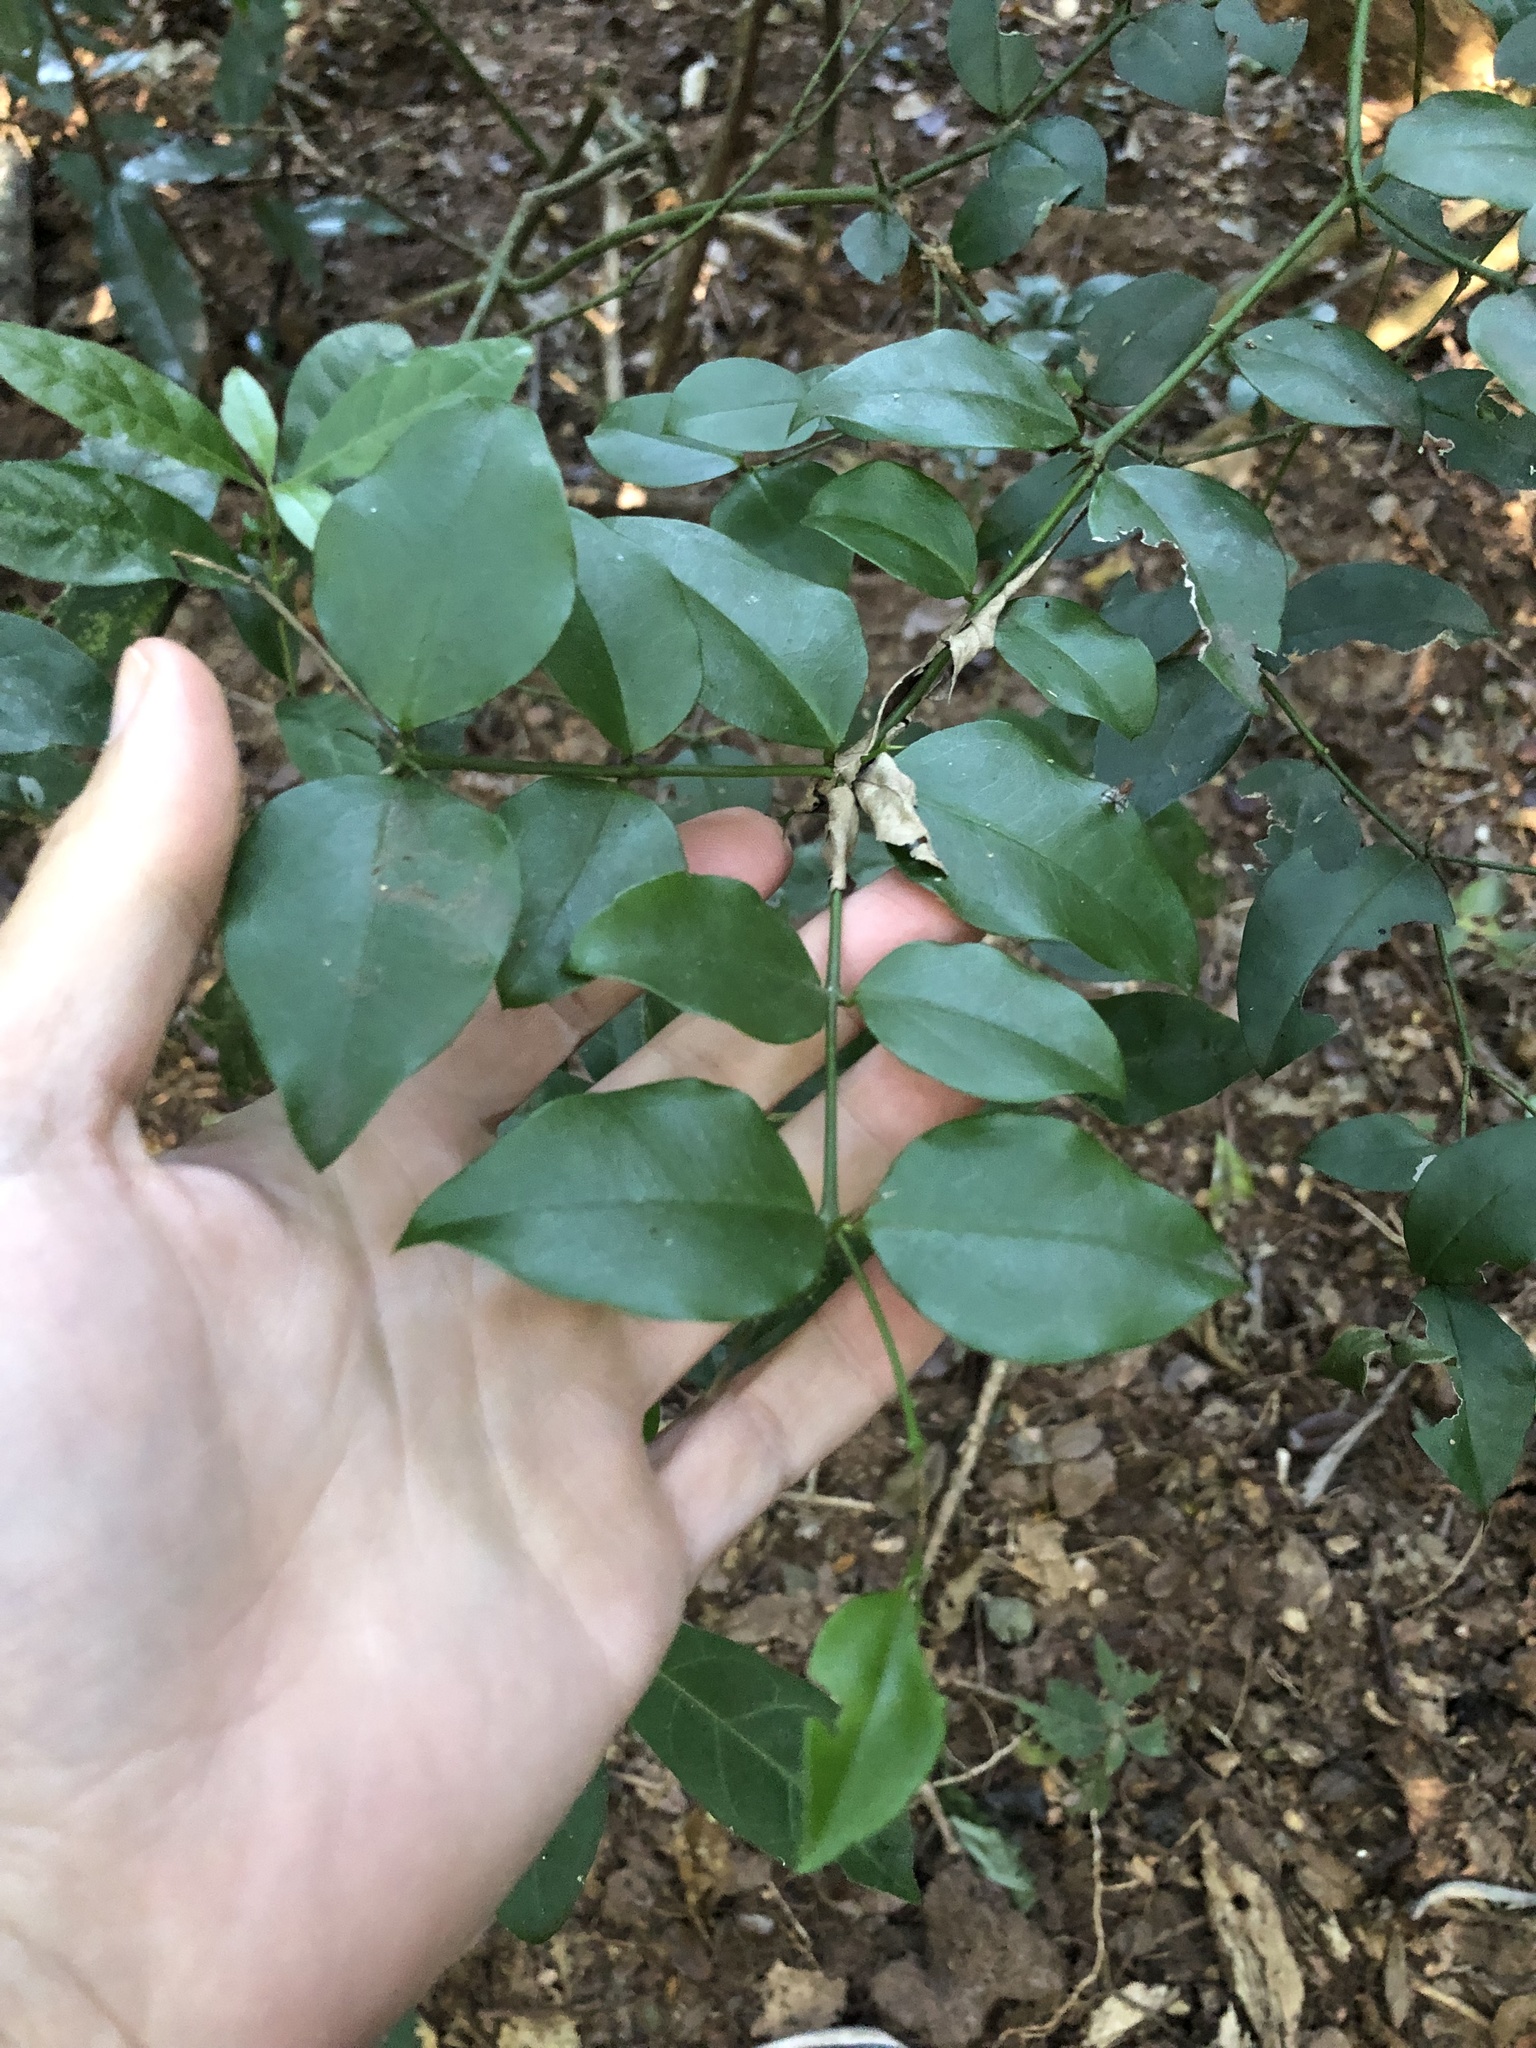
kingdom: Plantae
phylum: Tracheophyta
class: Magnoliopsida
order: Gentianales
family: Apocynaceae
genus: Carissa
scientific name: Carissa bispinosa
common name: Forest num-num
